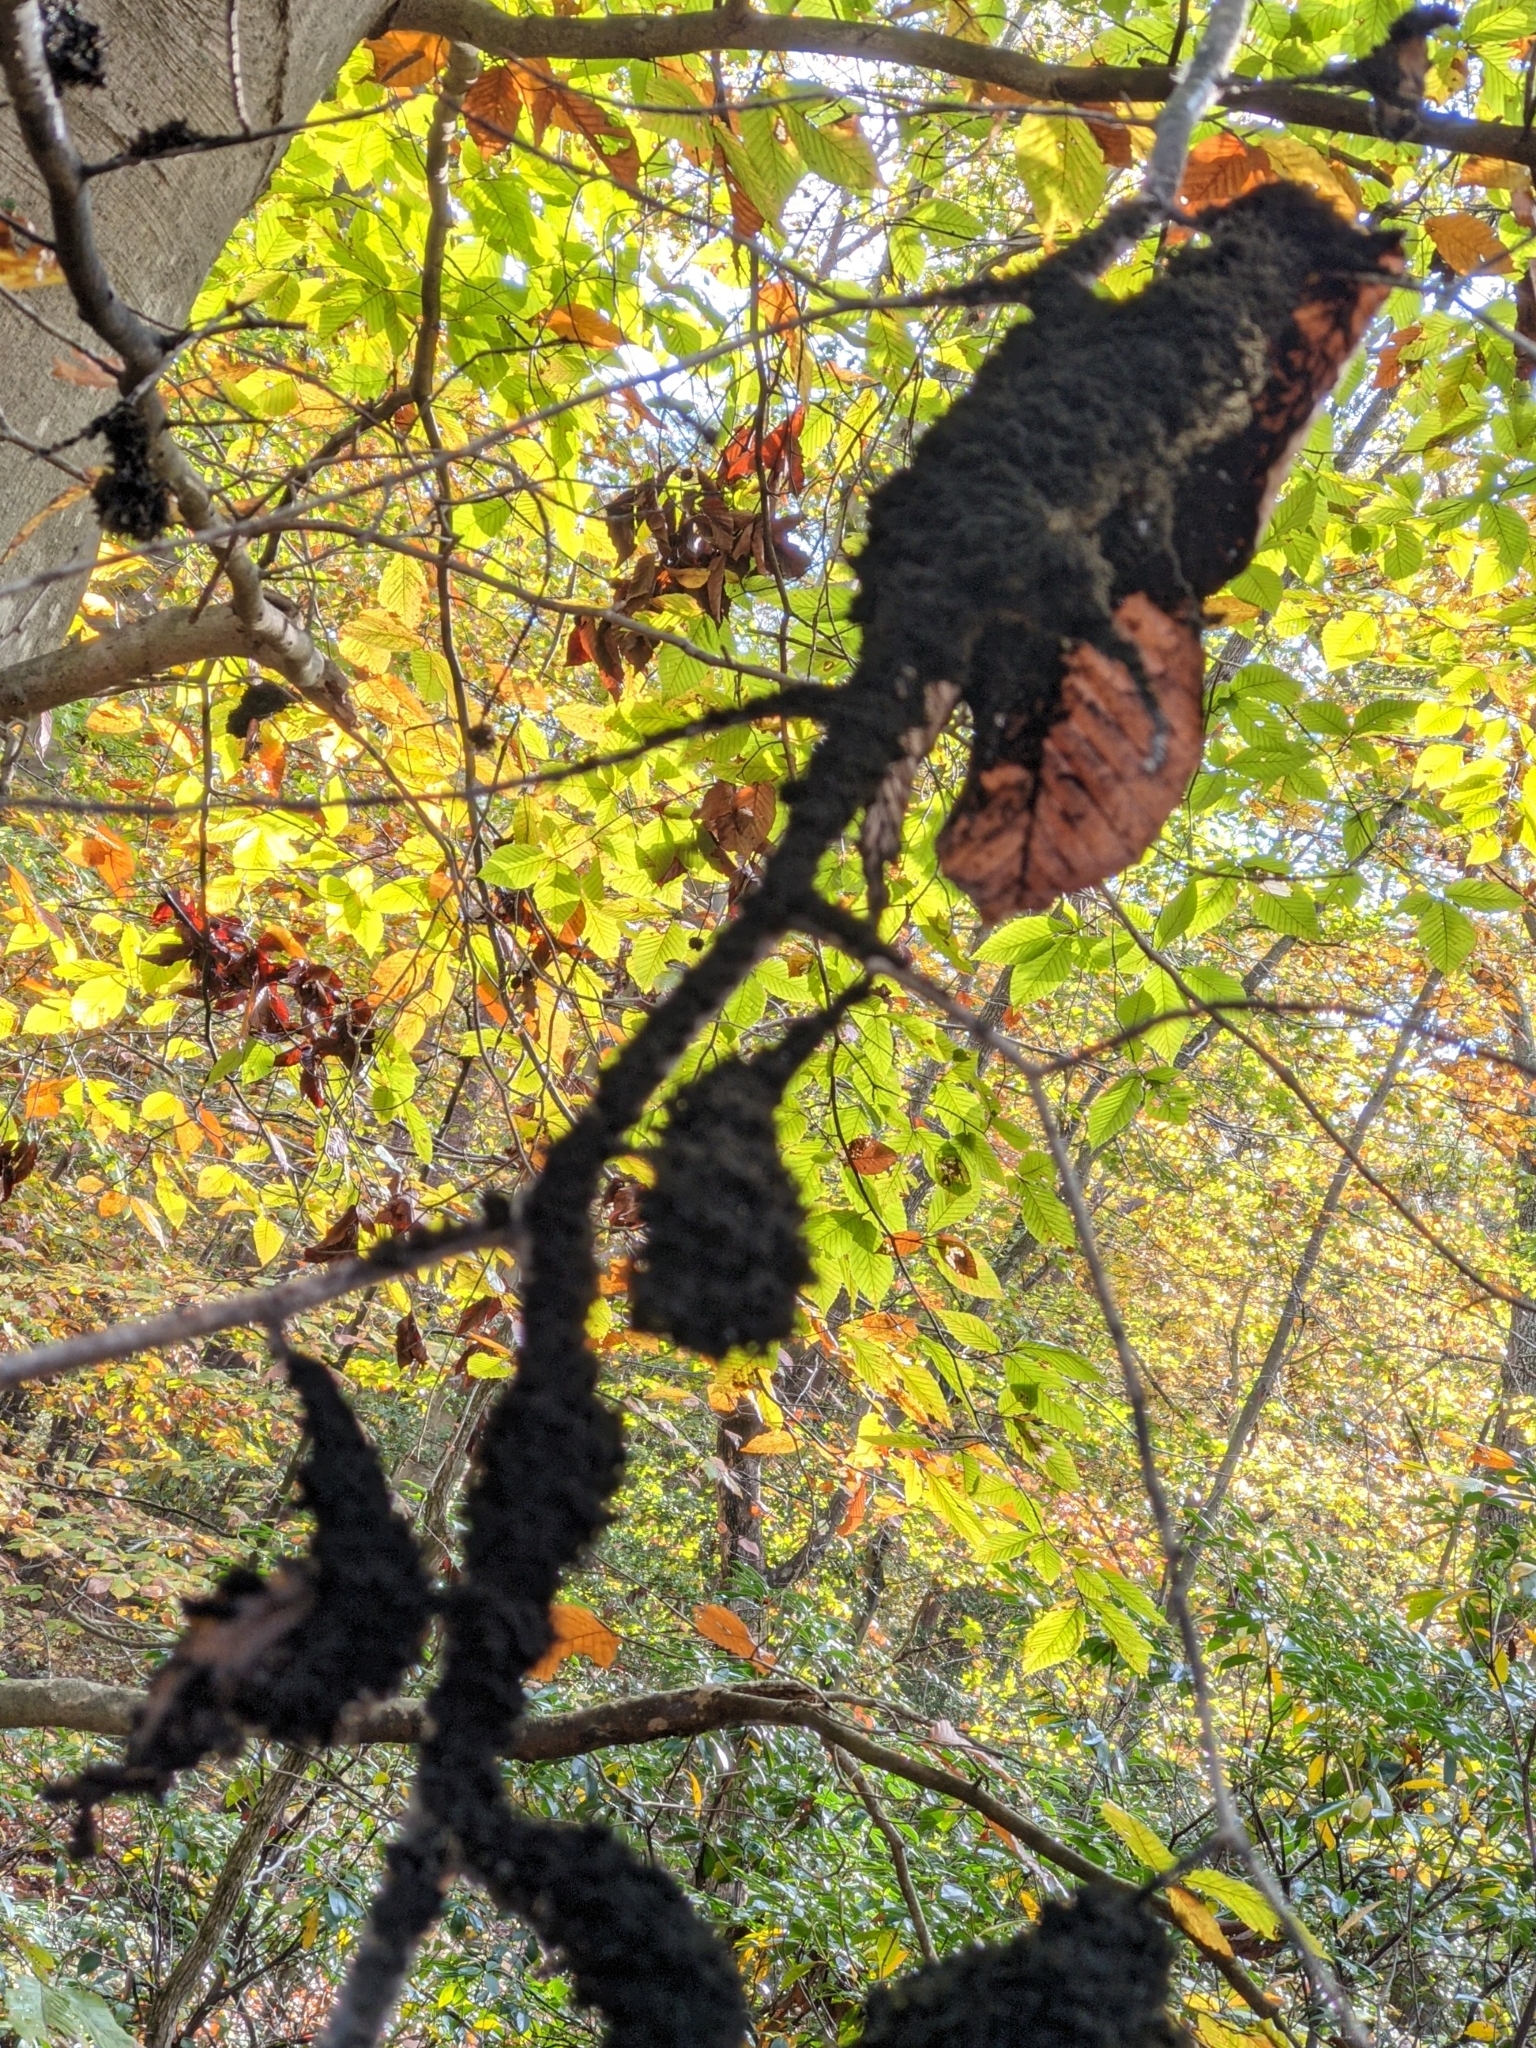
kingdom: Fungi
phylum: Ascomycota
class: Dothideomycetes
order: Capnodiales
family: Capnodiaceae
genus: Scorias
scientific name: Scorias spongiosa
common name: Black sooty mold
